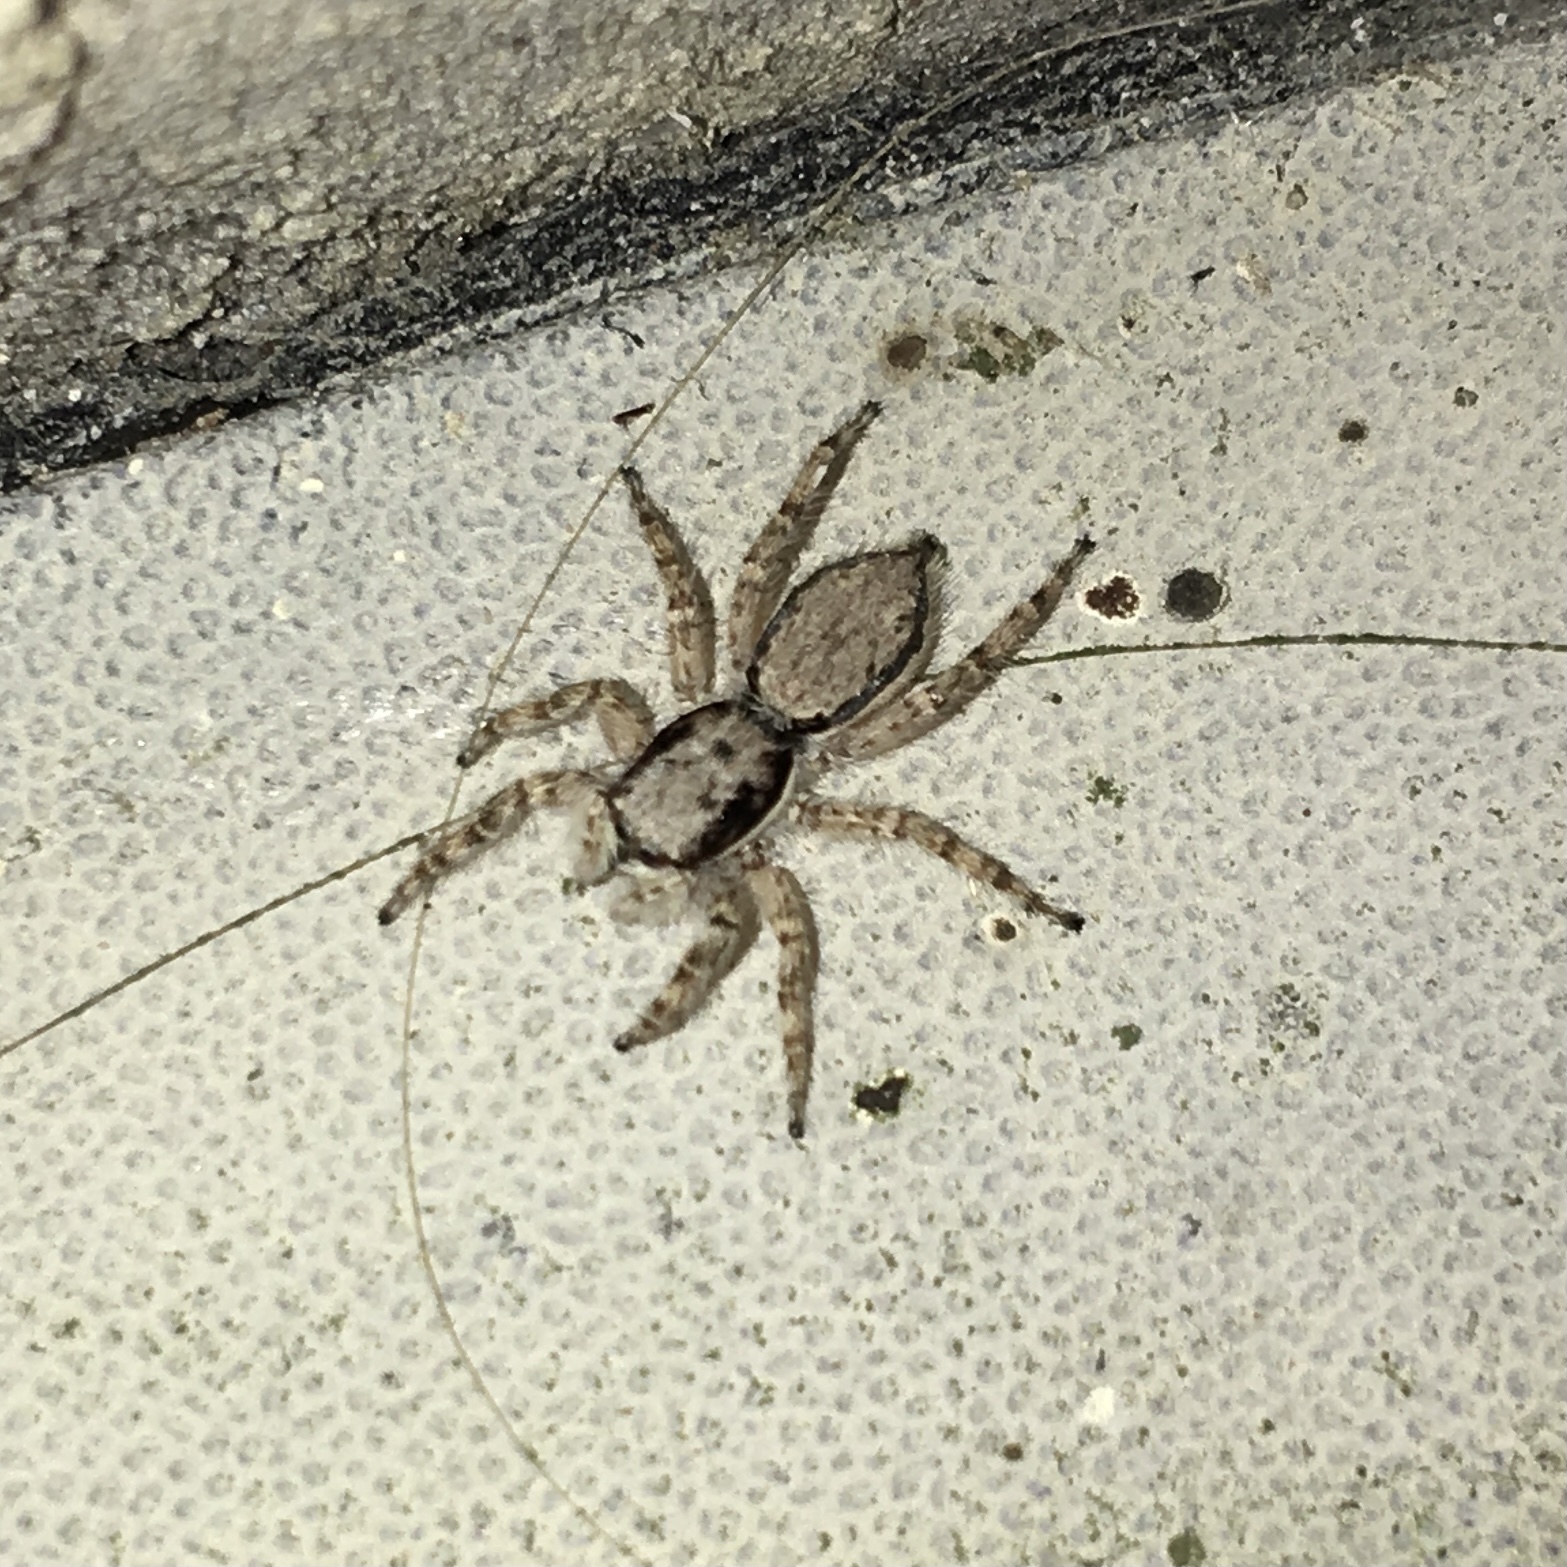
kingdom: Animalia
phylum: Arthropoda
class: Arachnida
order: Araneae
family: Salticidae
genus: Menemerus
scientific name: Menemerus bivittatus
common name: Gray wall jumper
